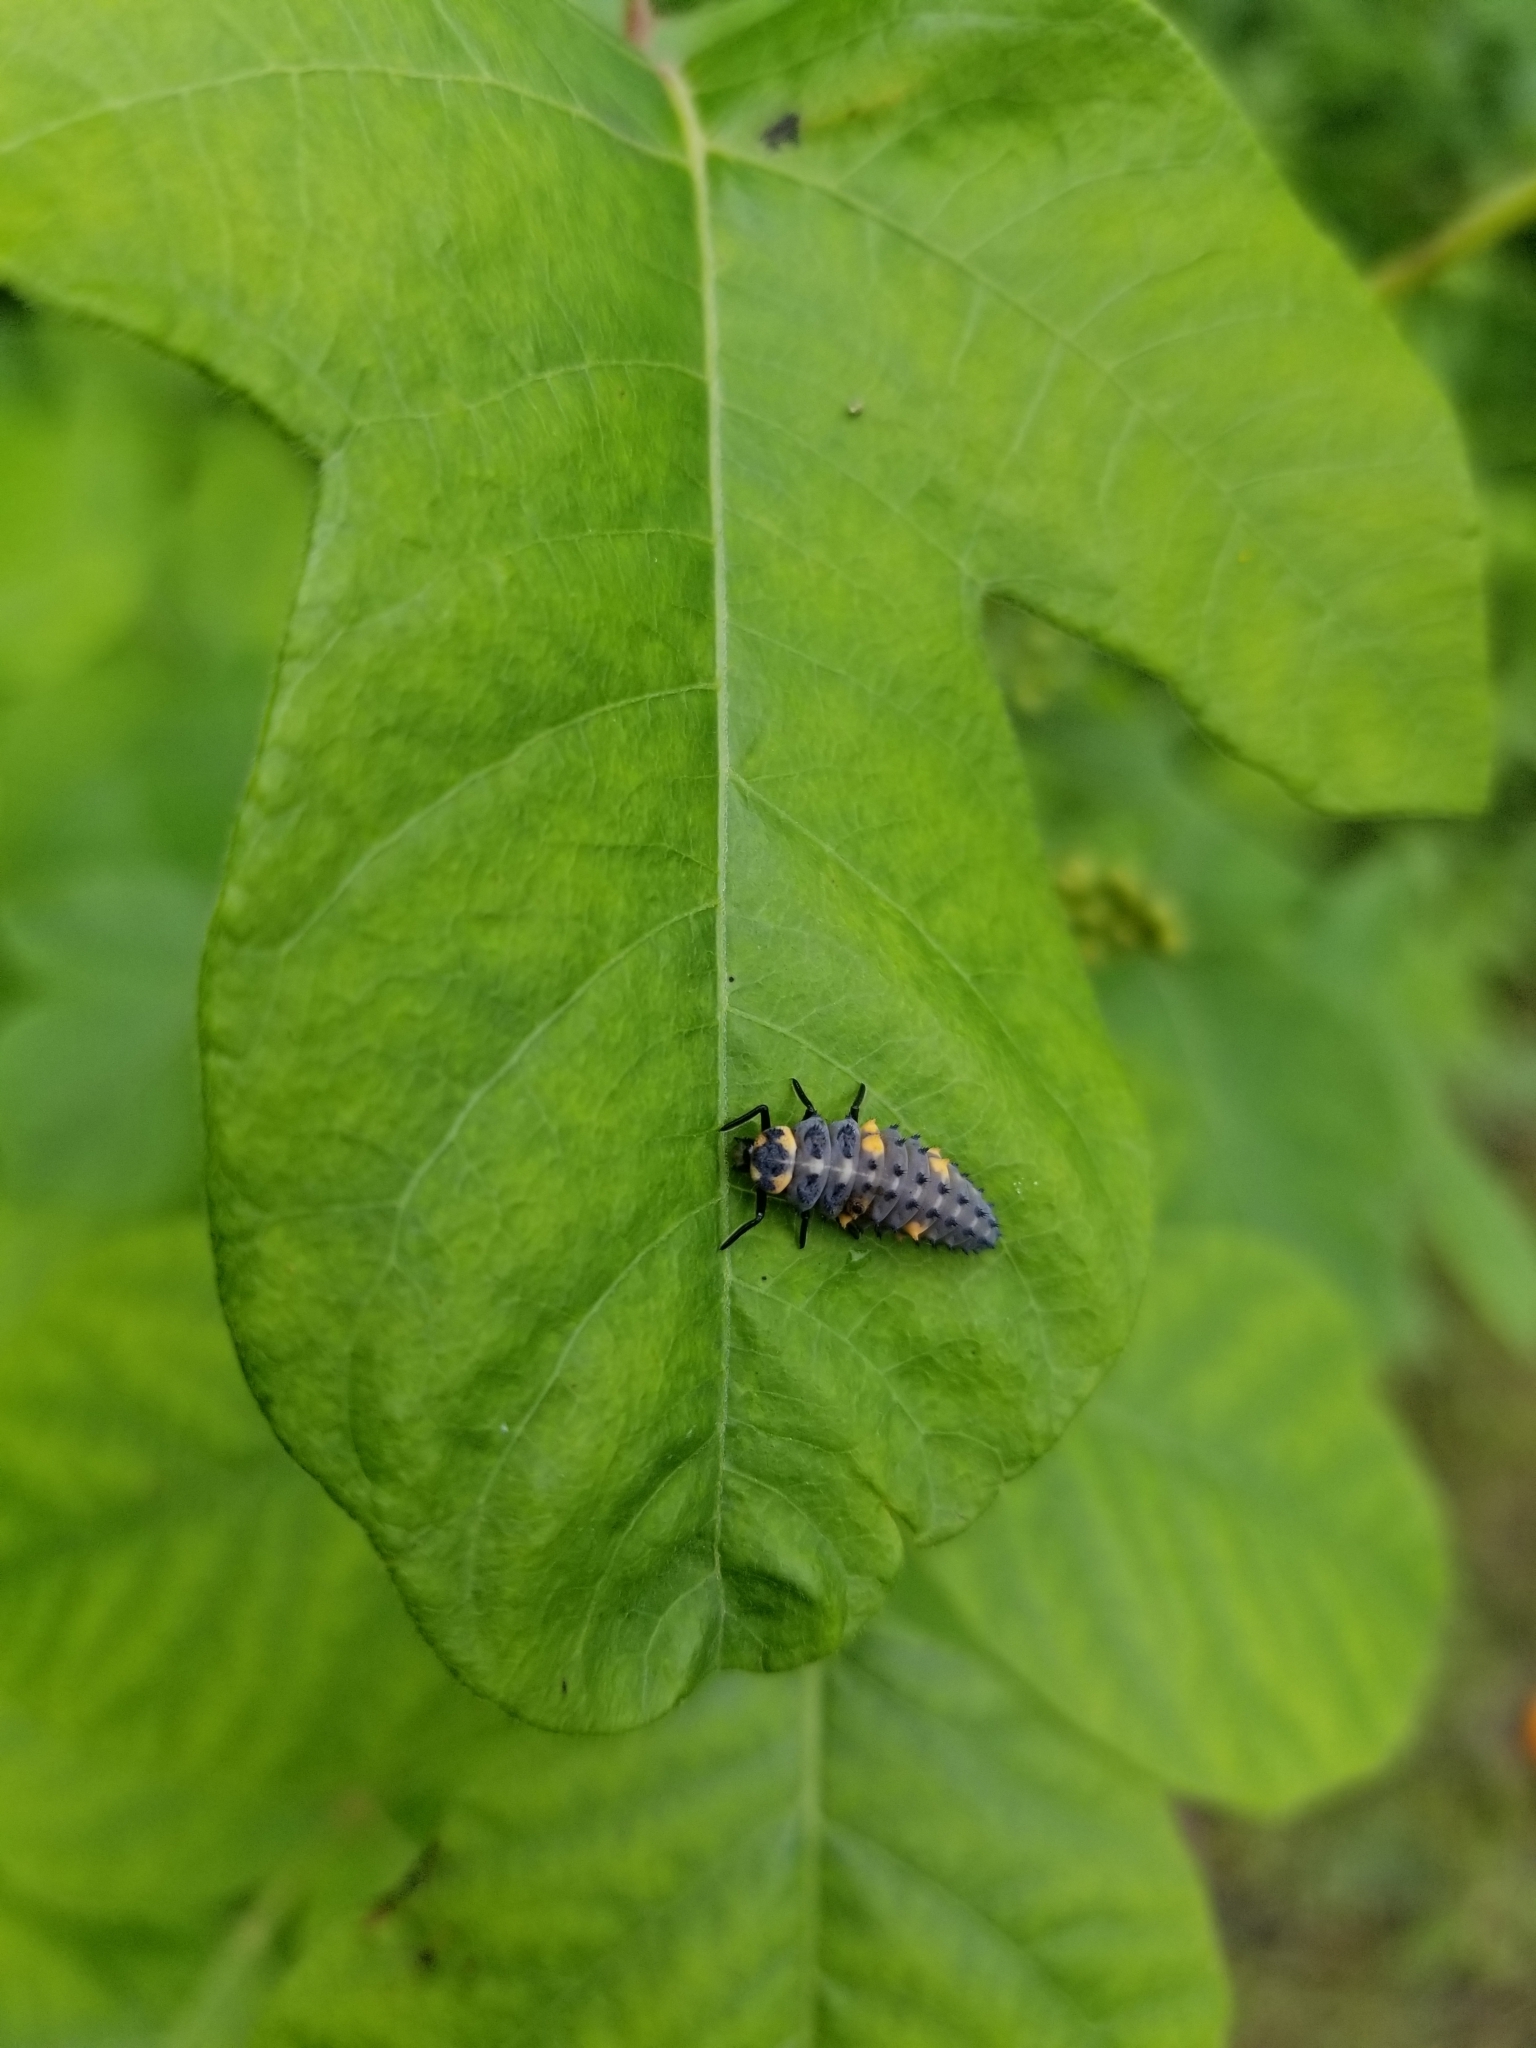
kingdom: Animalia
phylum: Arthropoda
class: Insecta
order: Coleoptera
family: Coccinellidae
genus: Coccinella
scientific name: Coccinella septempunctata
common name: Sevenspotted lady beetle
